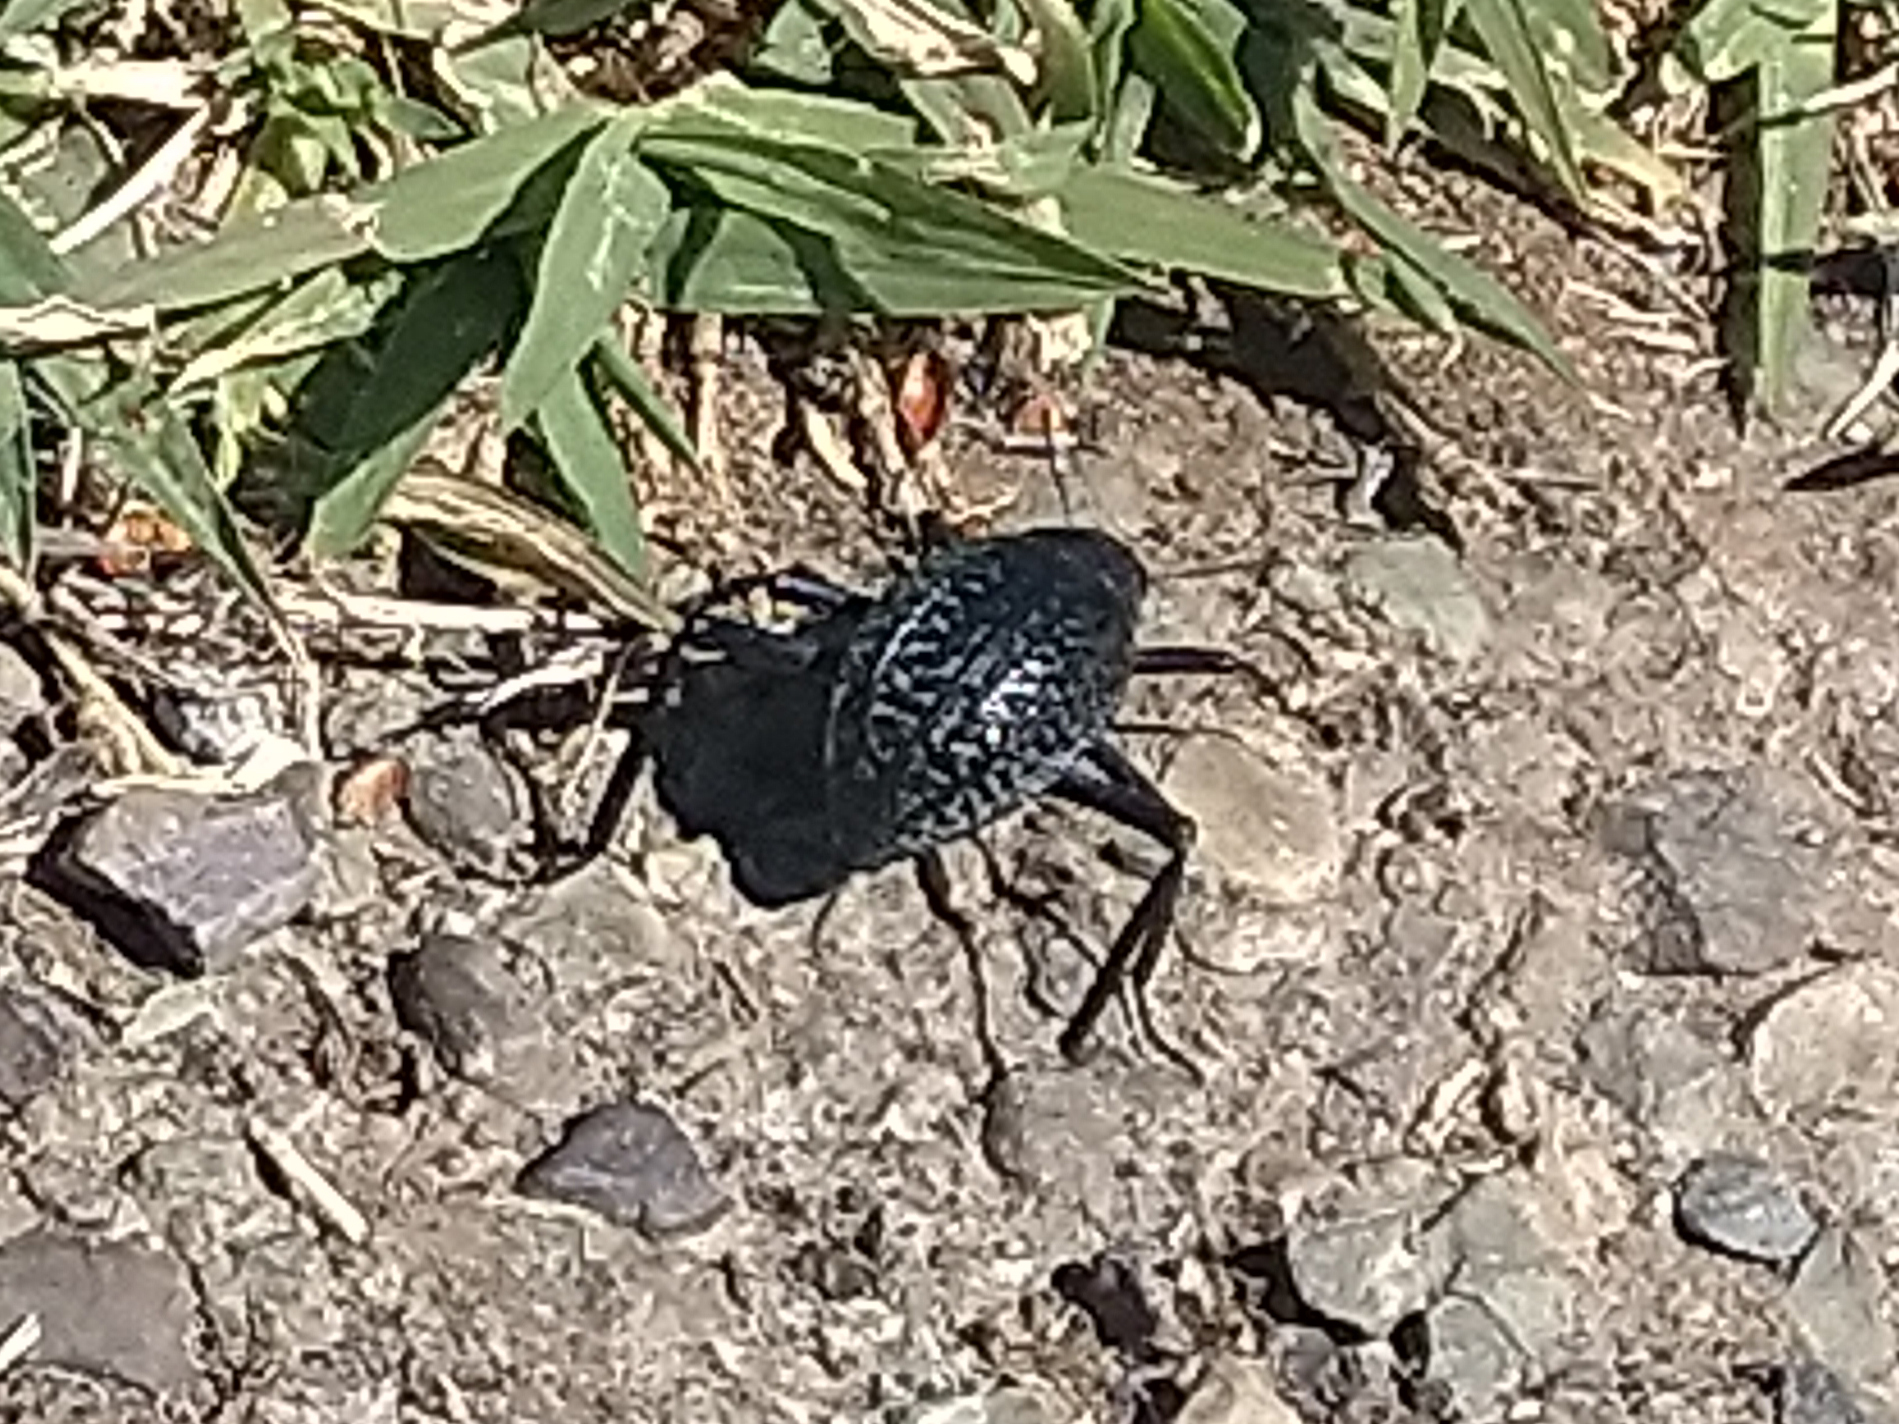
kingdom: Animalia
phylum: Arthropoda
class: Insecta
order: Coleoptera
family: Tenebrionidae
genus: Adesmia
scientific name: Adesmia cancellata
